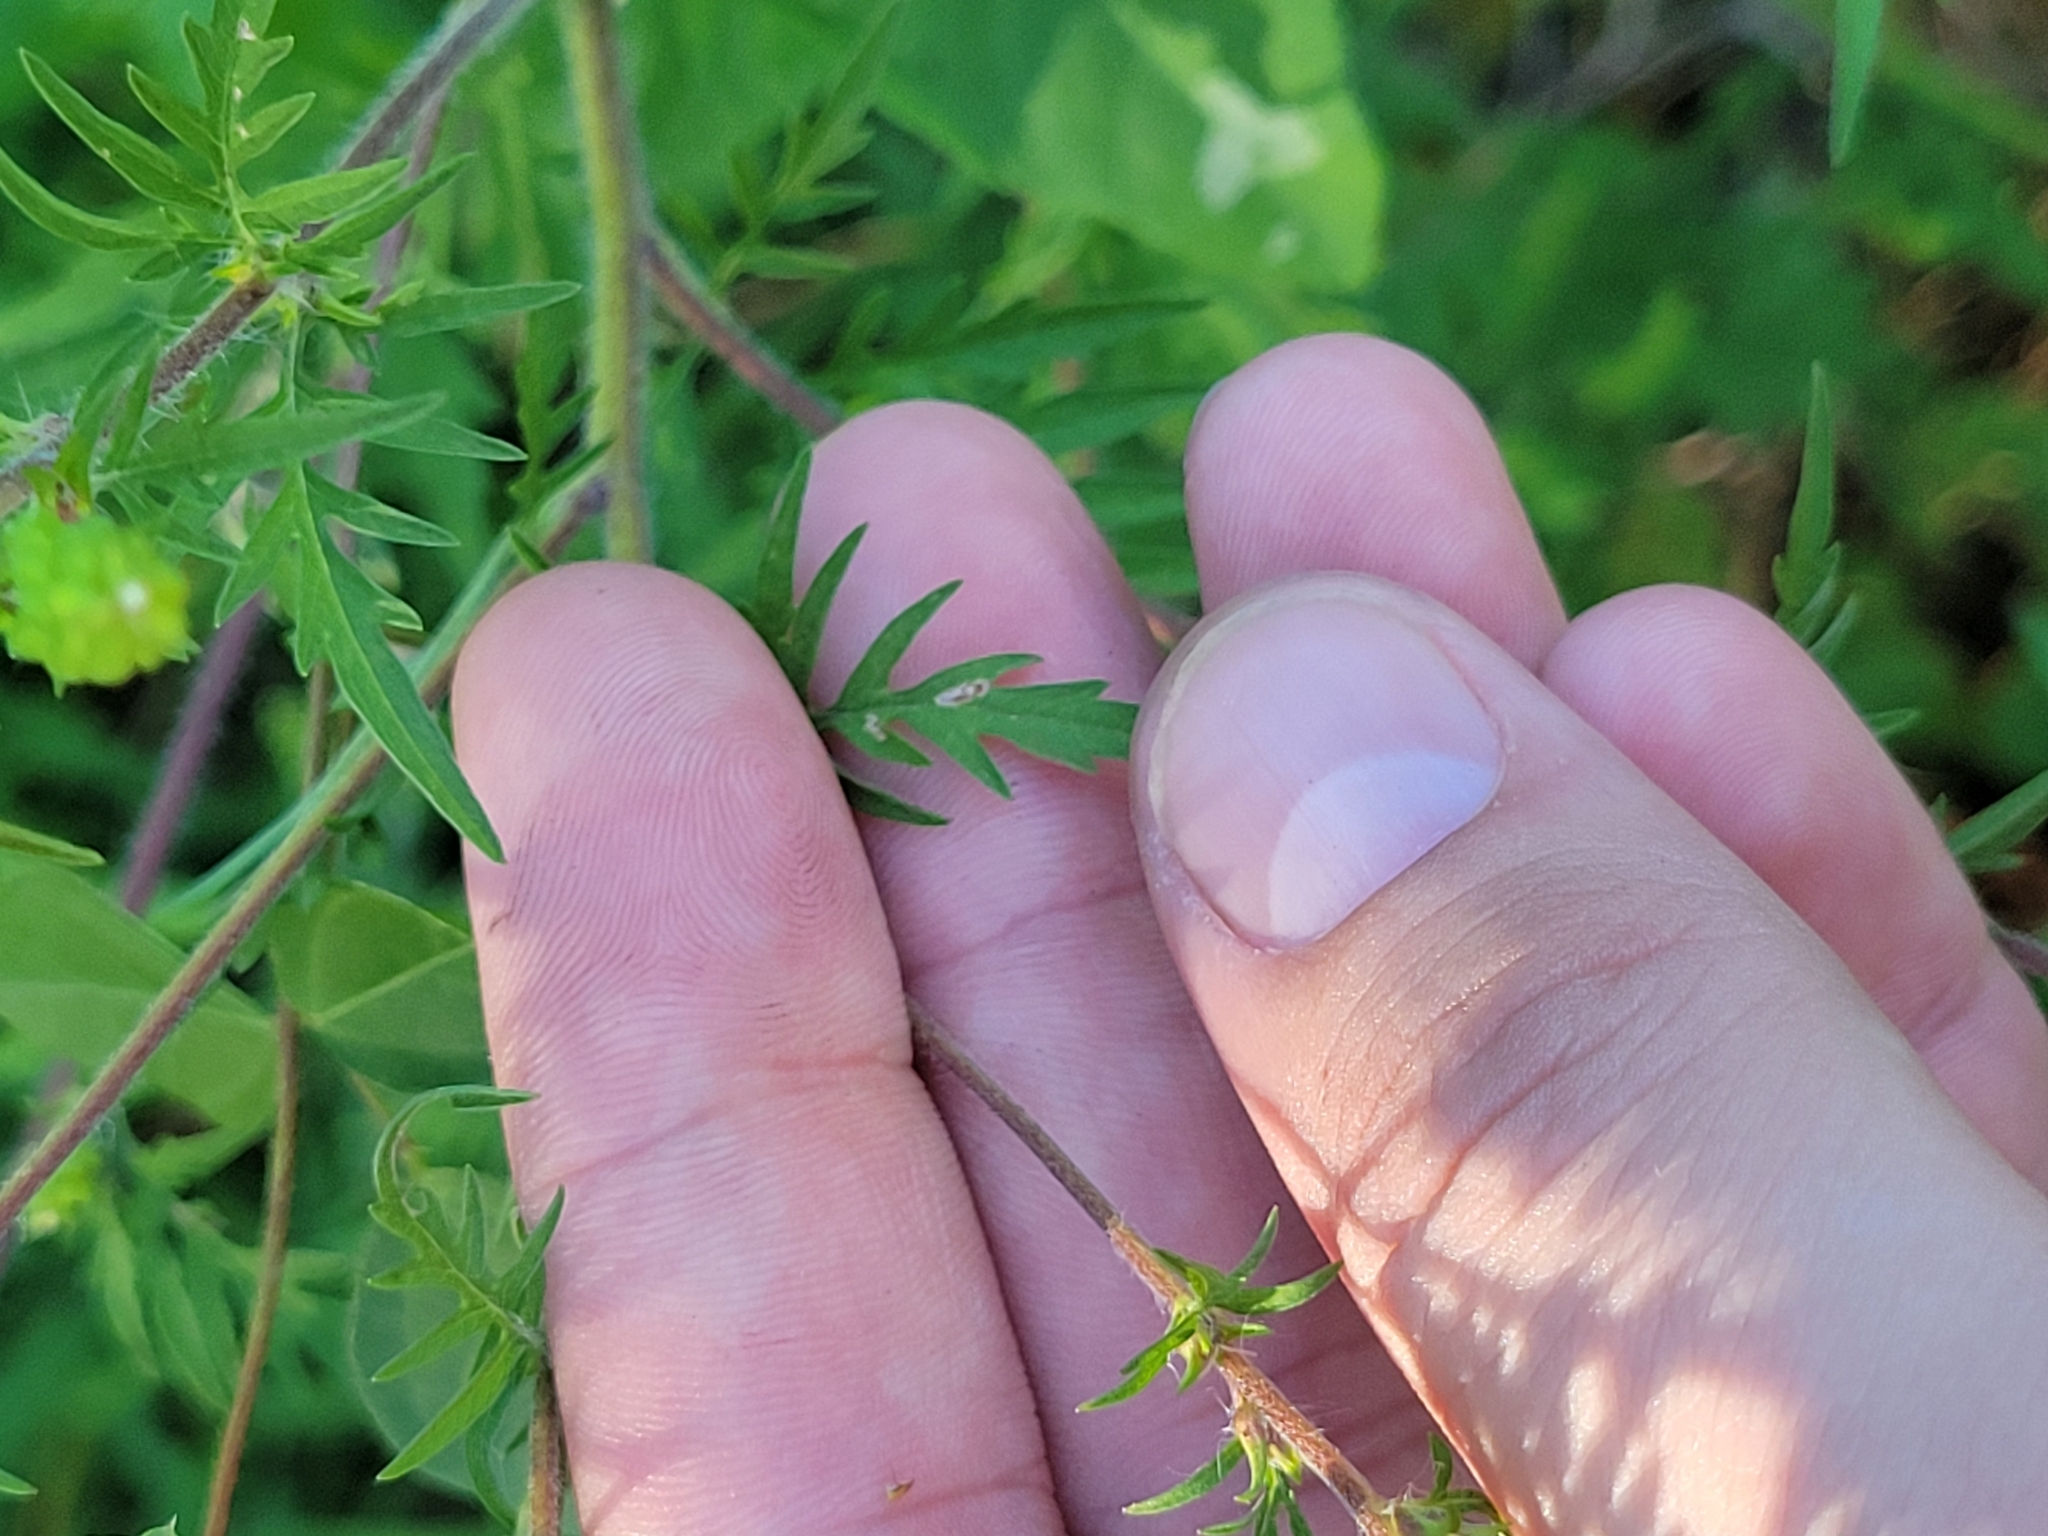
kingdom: Plantae
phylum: Tracheophyta
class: Magnoliopsida
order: Asterales
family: Asteraceae
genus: Ambrosia
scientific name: Ambrosia artemisiifolia
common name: Annual ragweed
